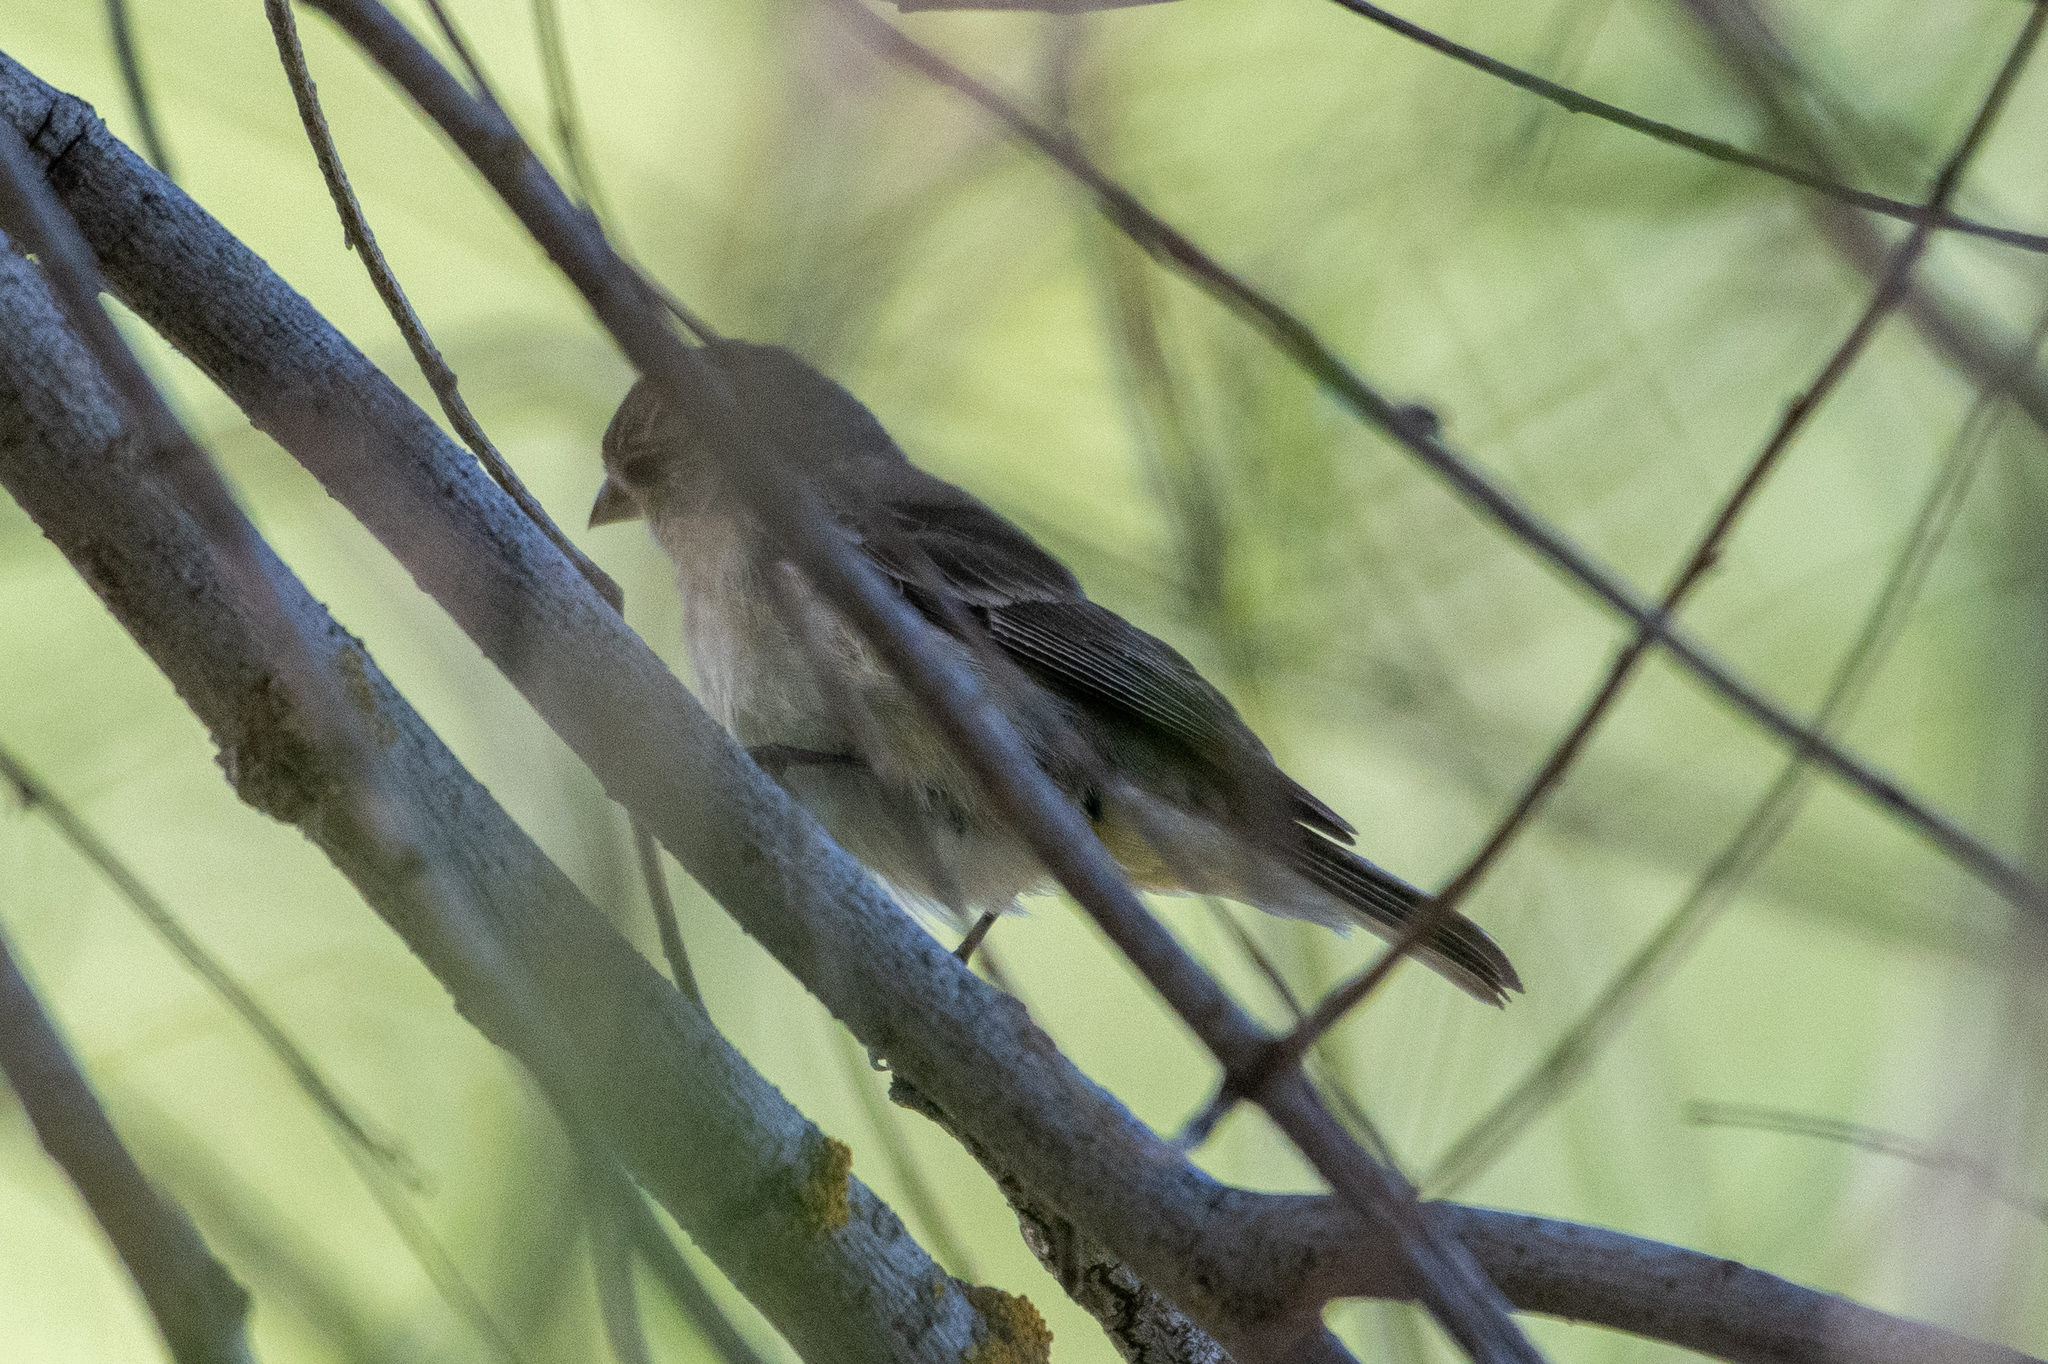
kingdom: Animalia
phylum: Chordata
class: Aves
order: Passeriformes
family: Fringillidae
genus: Spinus
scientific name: Spinus psaltria
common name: Lesser goldfinch
